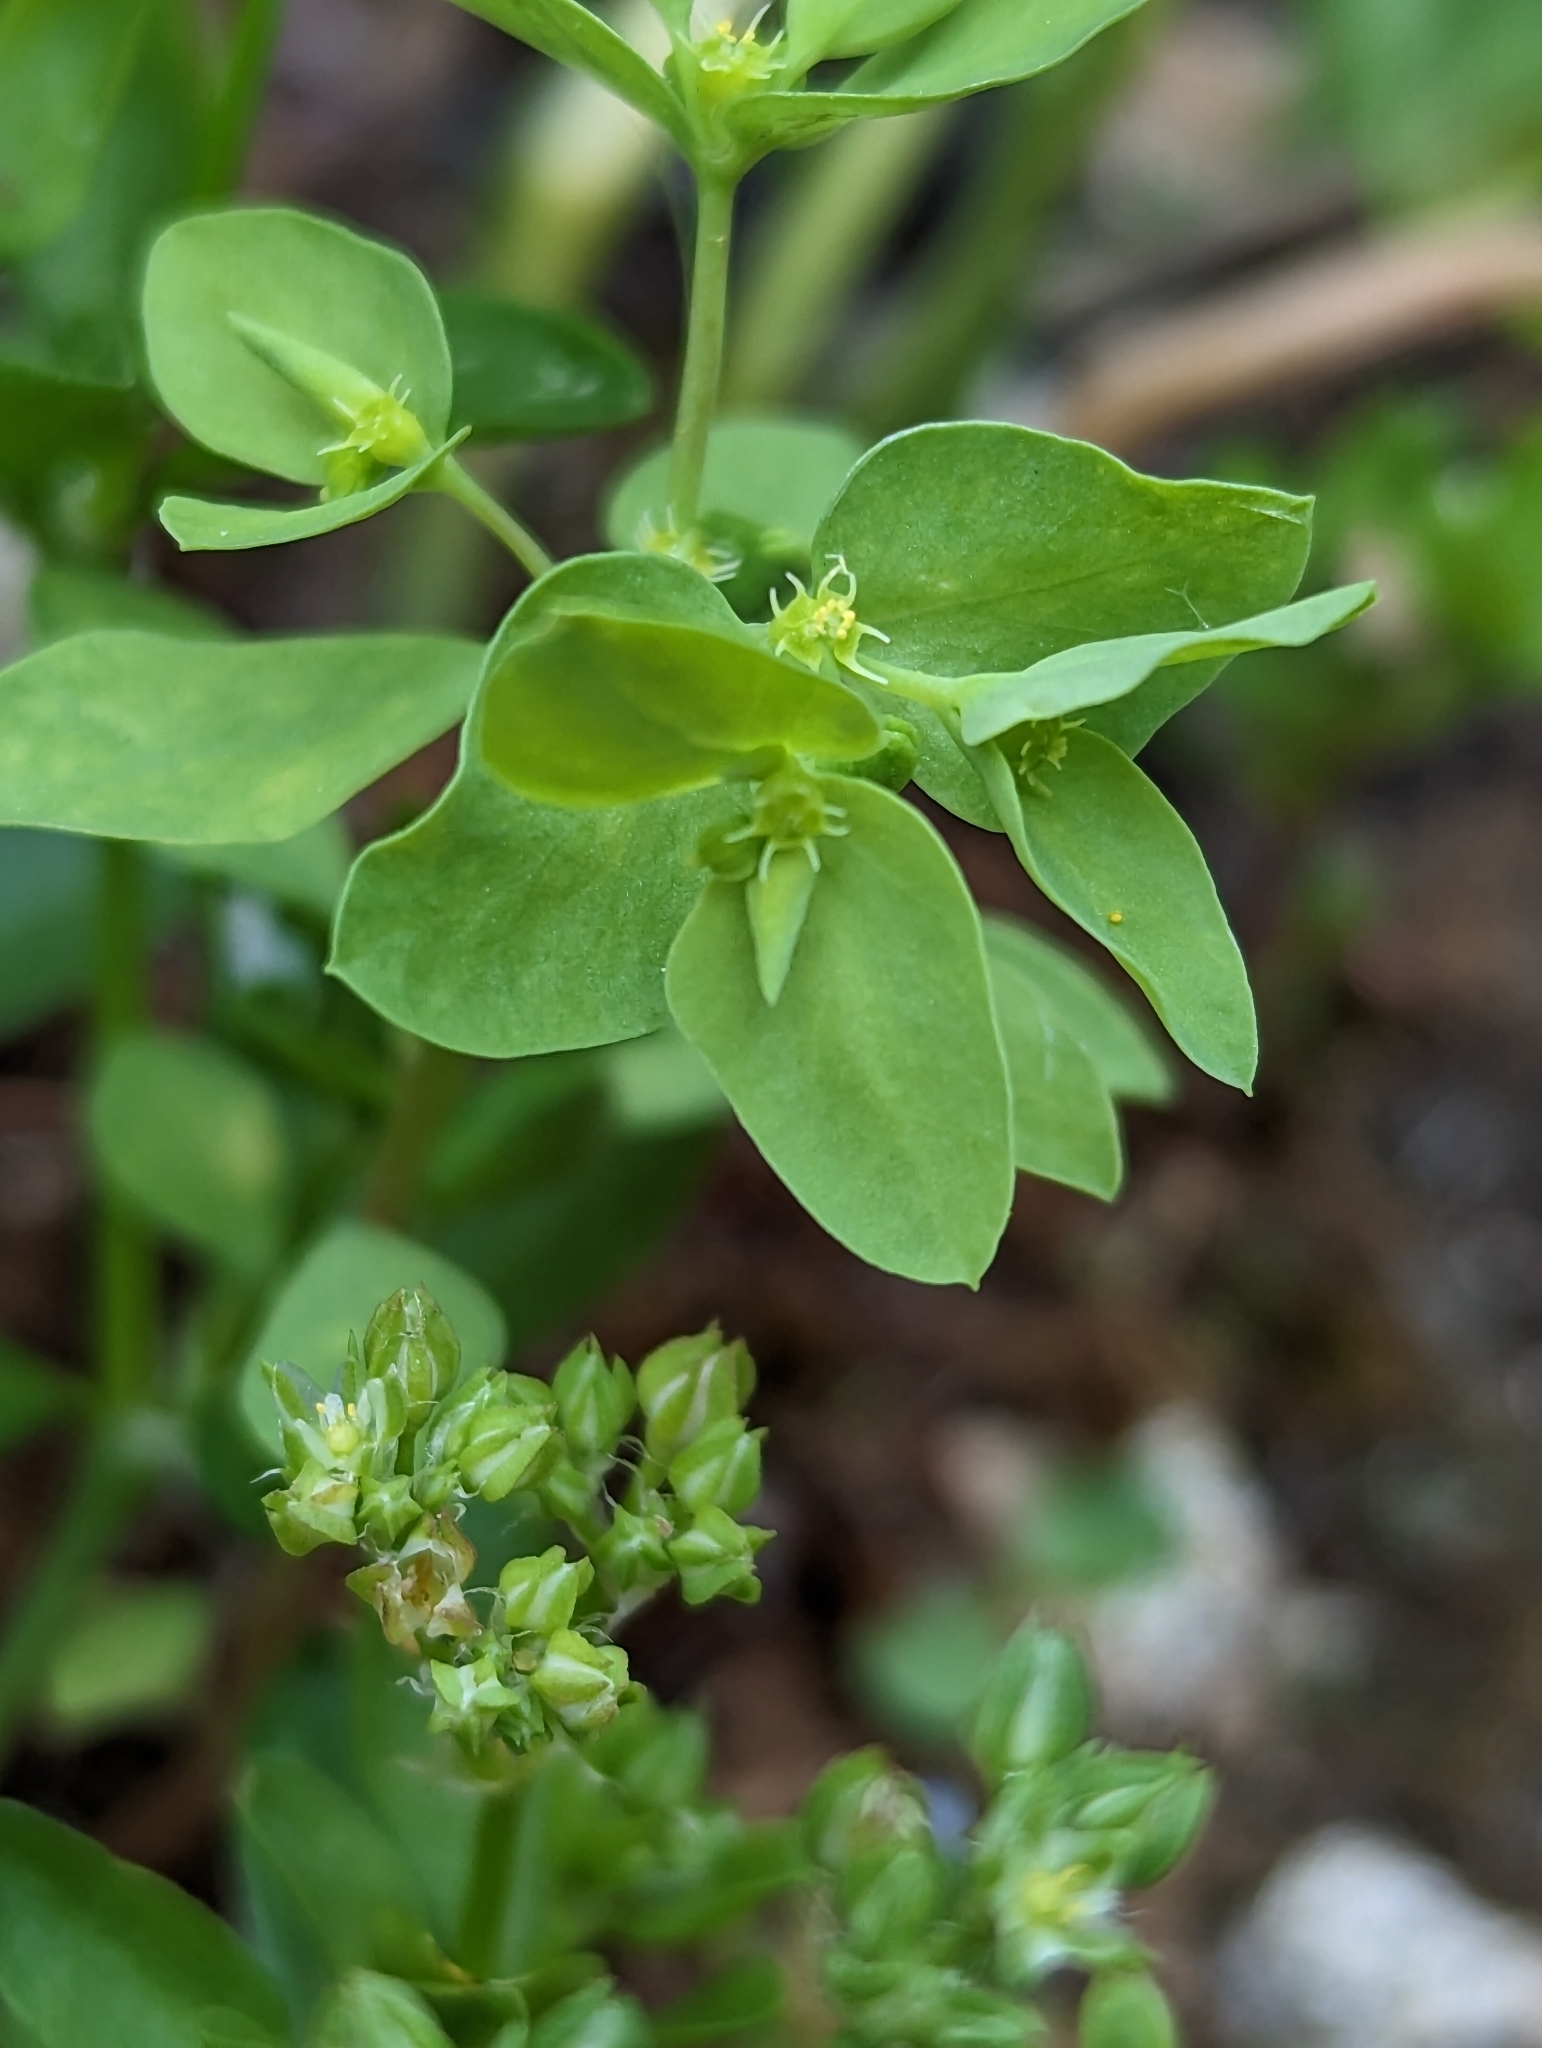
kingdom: Plantae
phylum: Tracheophyta
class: Magnoliopsida
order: Malpighiales
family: Euphorbiaceae
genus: Euphorbia
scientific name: Euphorbia peplus
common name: Petty spurge
